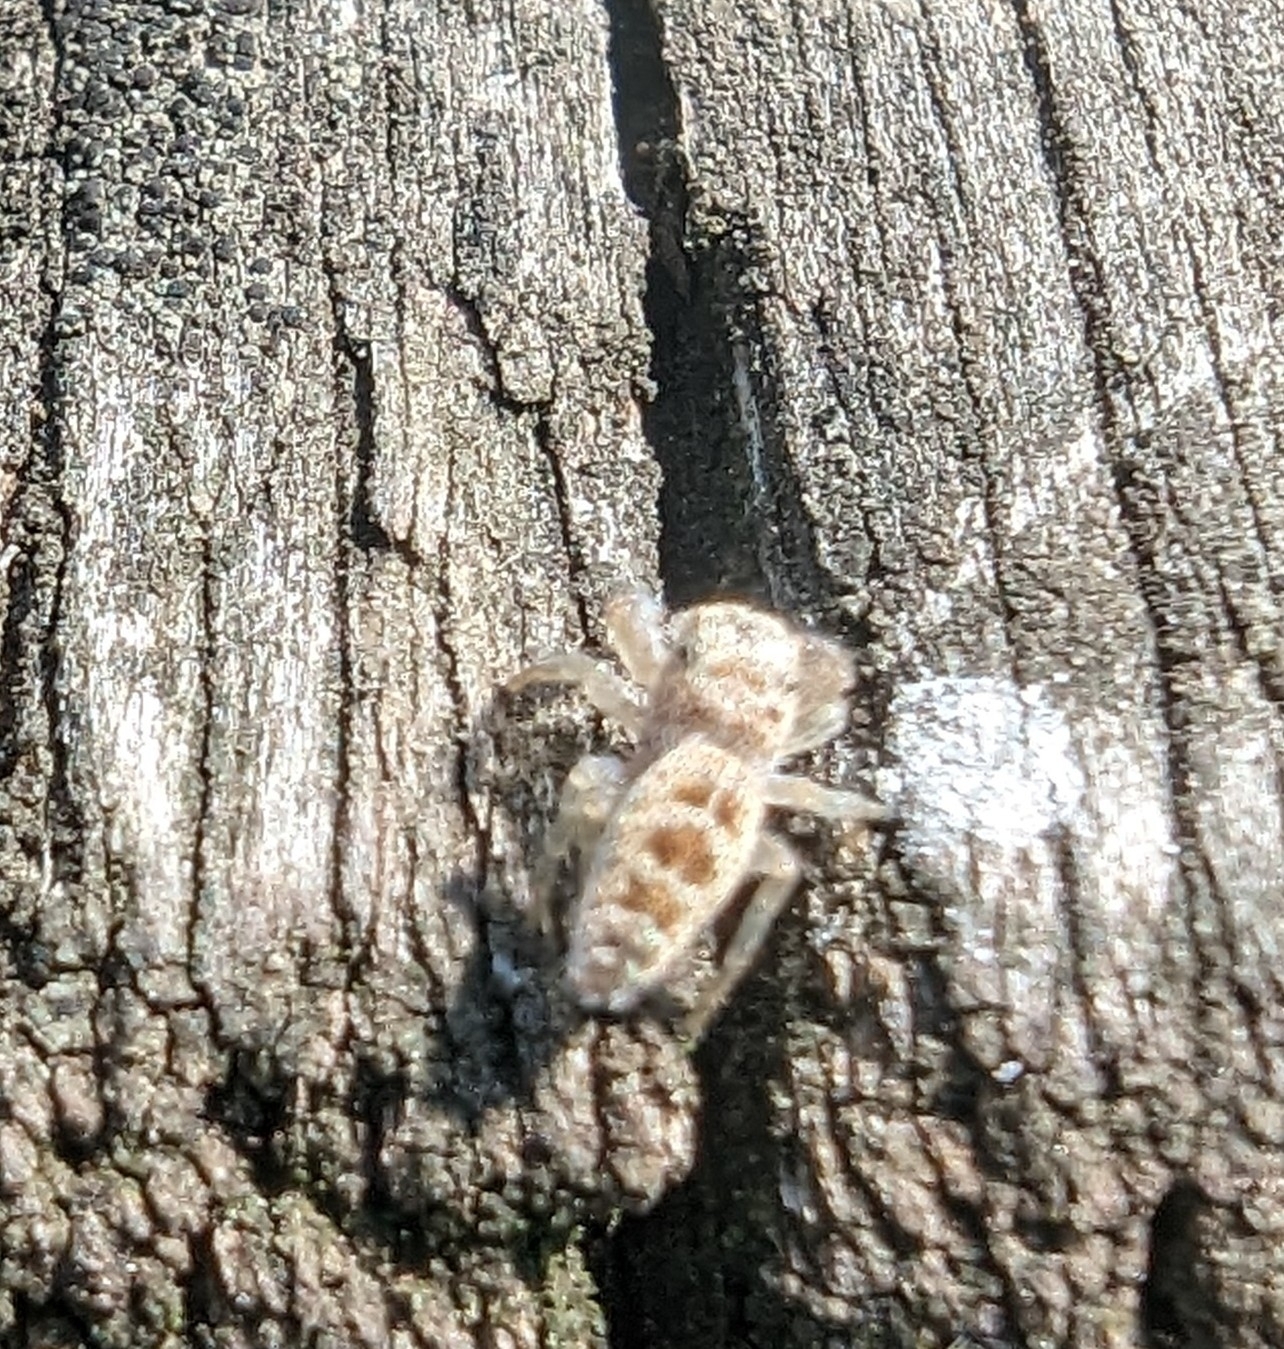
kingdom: Animalia
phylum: Arthropoda
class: Arachnida
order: Araneae
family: Salticidae
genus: Hentzia
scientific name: Hentzia mitrata
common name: White-jawed jumping spider
